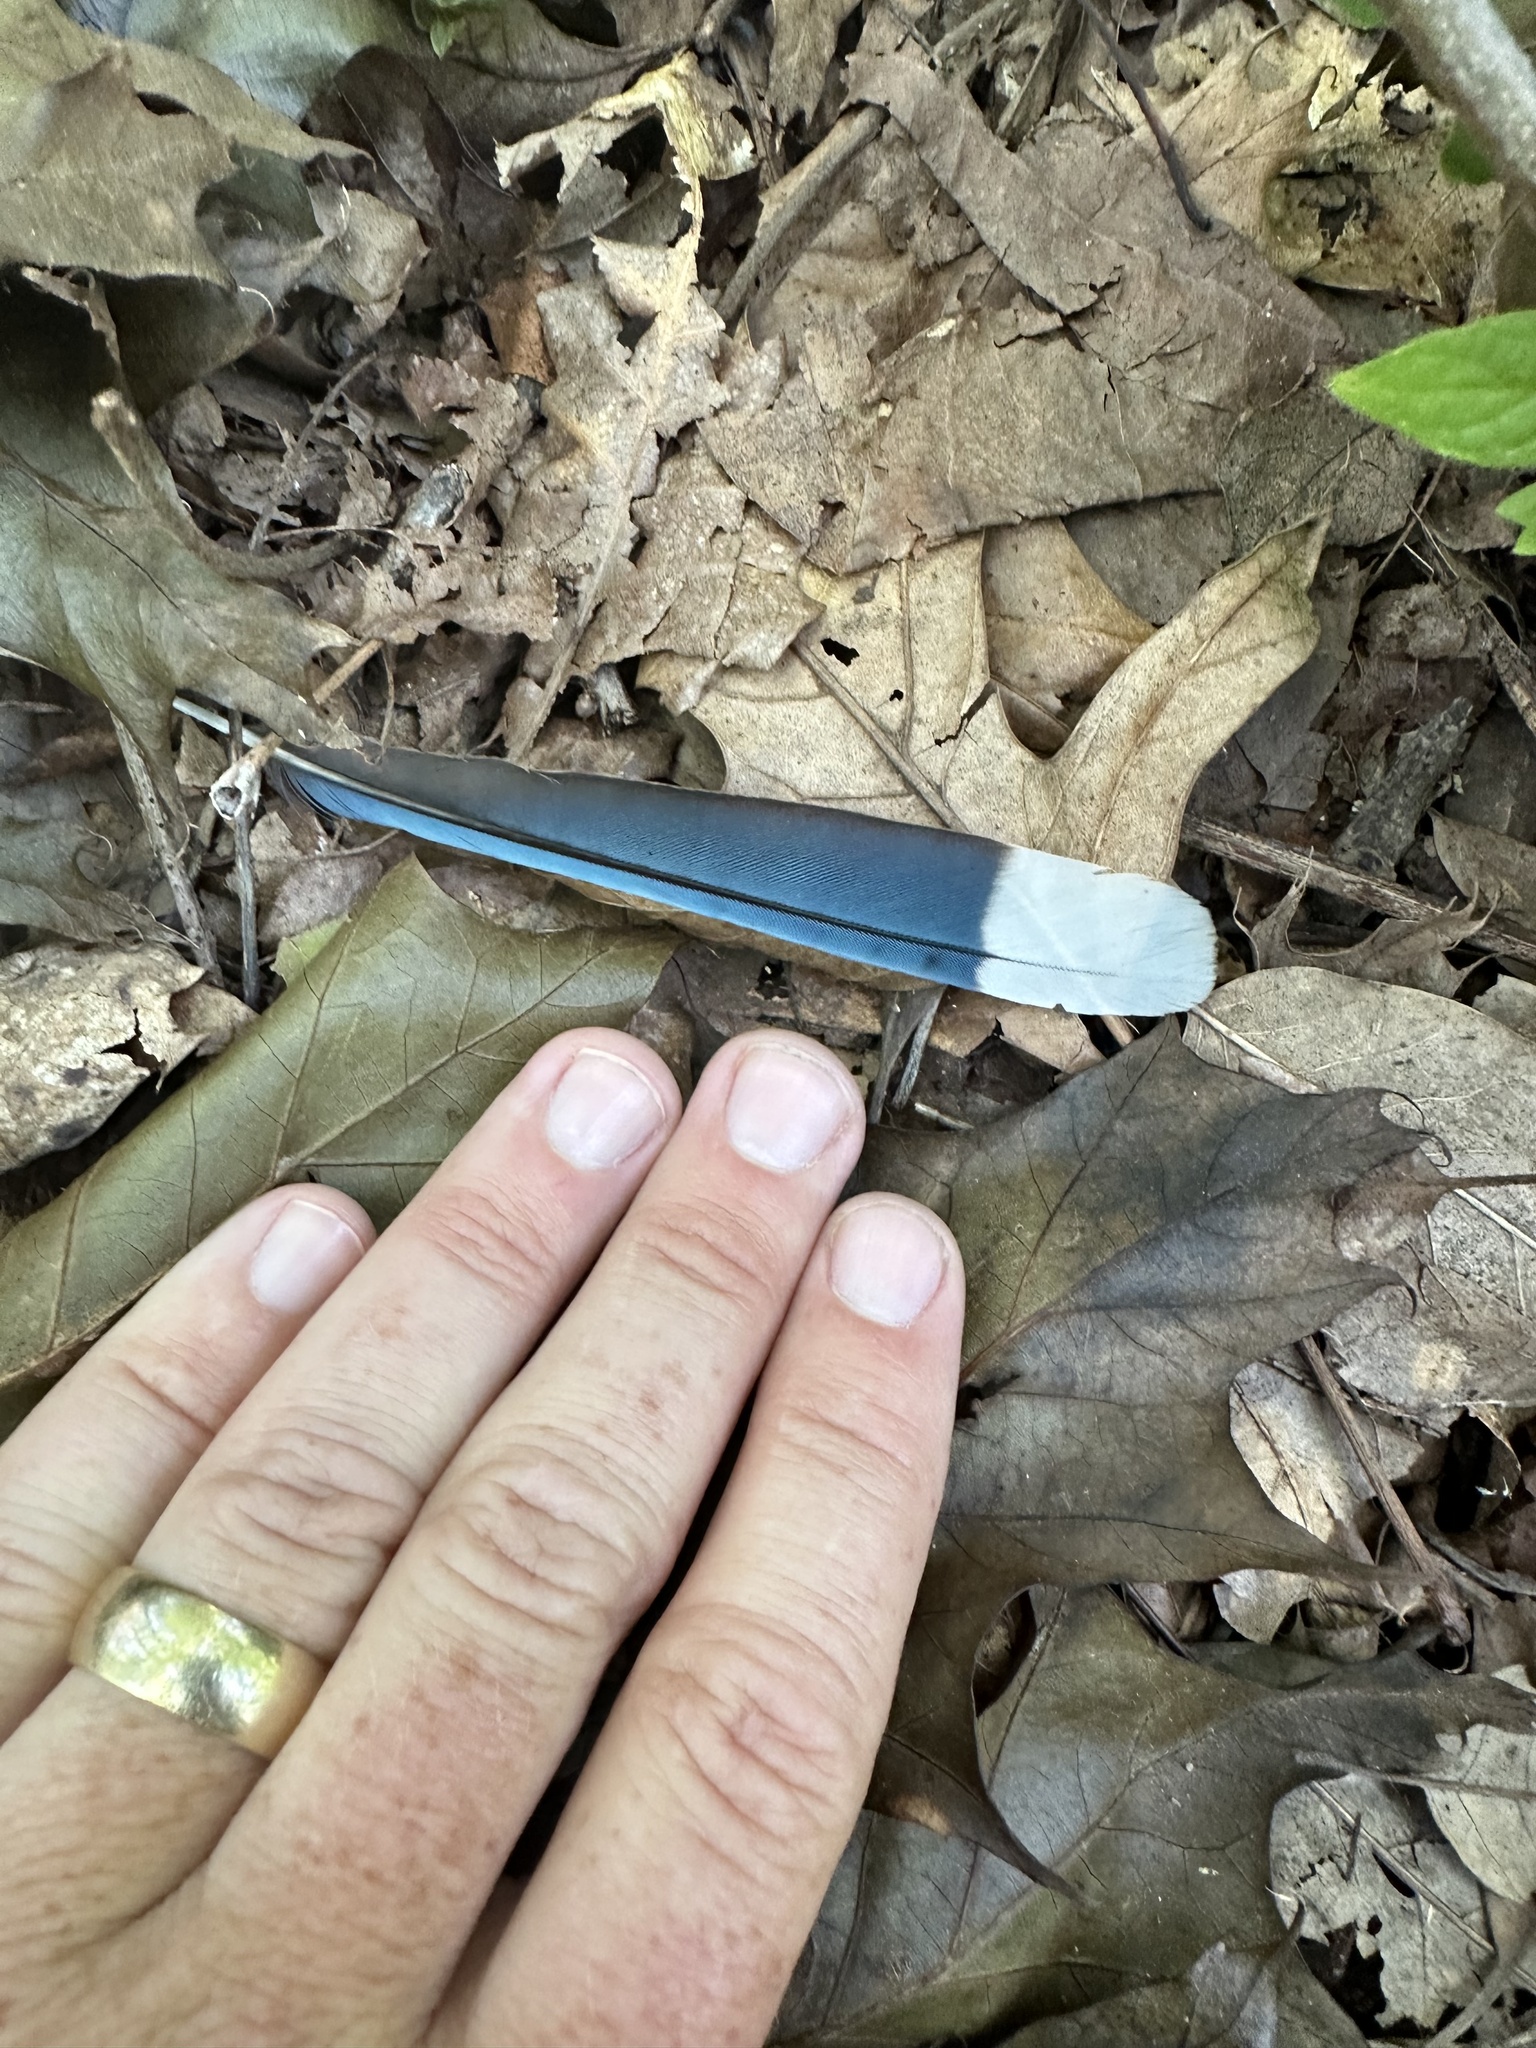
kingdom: Animalia
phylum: Chordata
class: Aves
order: Passeriformes
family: Corvidae
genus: Cyanocitta
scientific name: Cyanocitta cristata
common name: Blue jay
